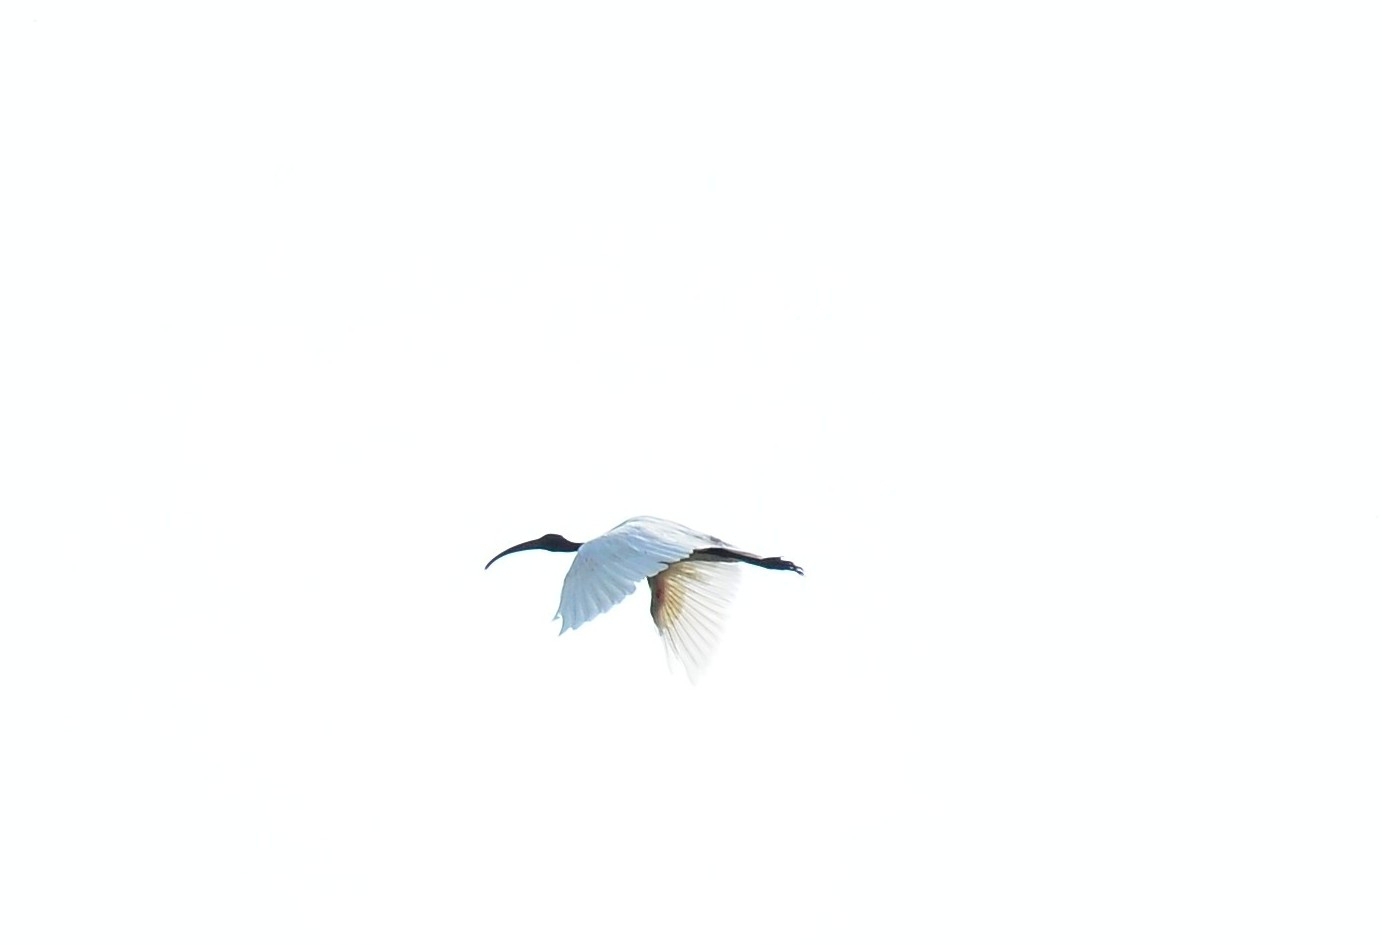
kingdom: Animalia
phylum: Chordata
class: Aves
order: Pelecaniformes
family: Threskiornithidae
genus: Threskiornis
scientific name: Threskiornis melanocephalus
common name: Black-headed ibis
